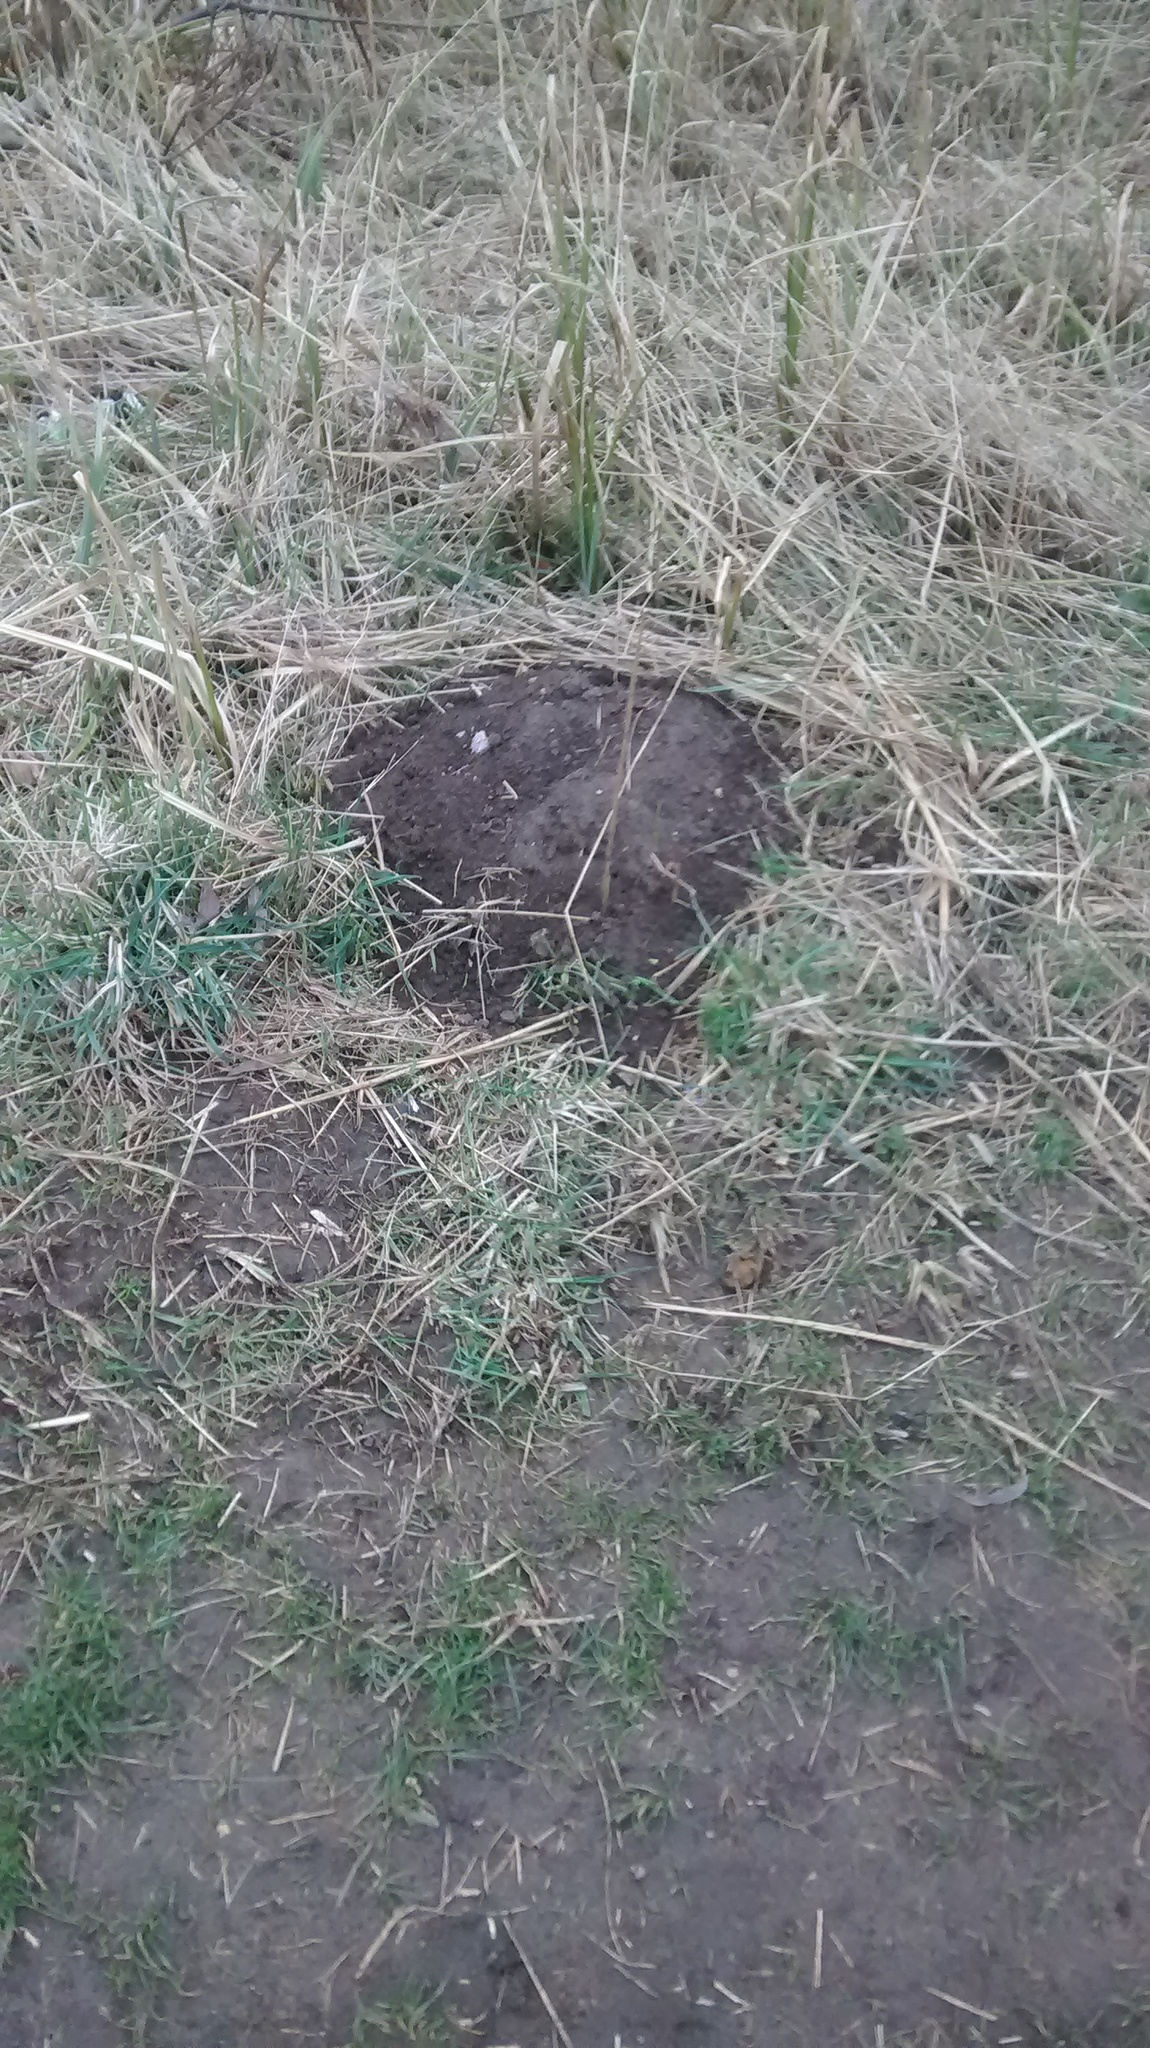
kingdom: Animalia
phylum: Chordata
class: Mammalia
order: Soricomorpha
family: Talpidae
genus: Talpa
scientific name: Talpa europaea
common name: European mole
